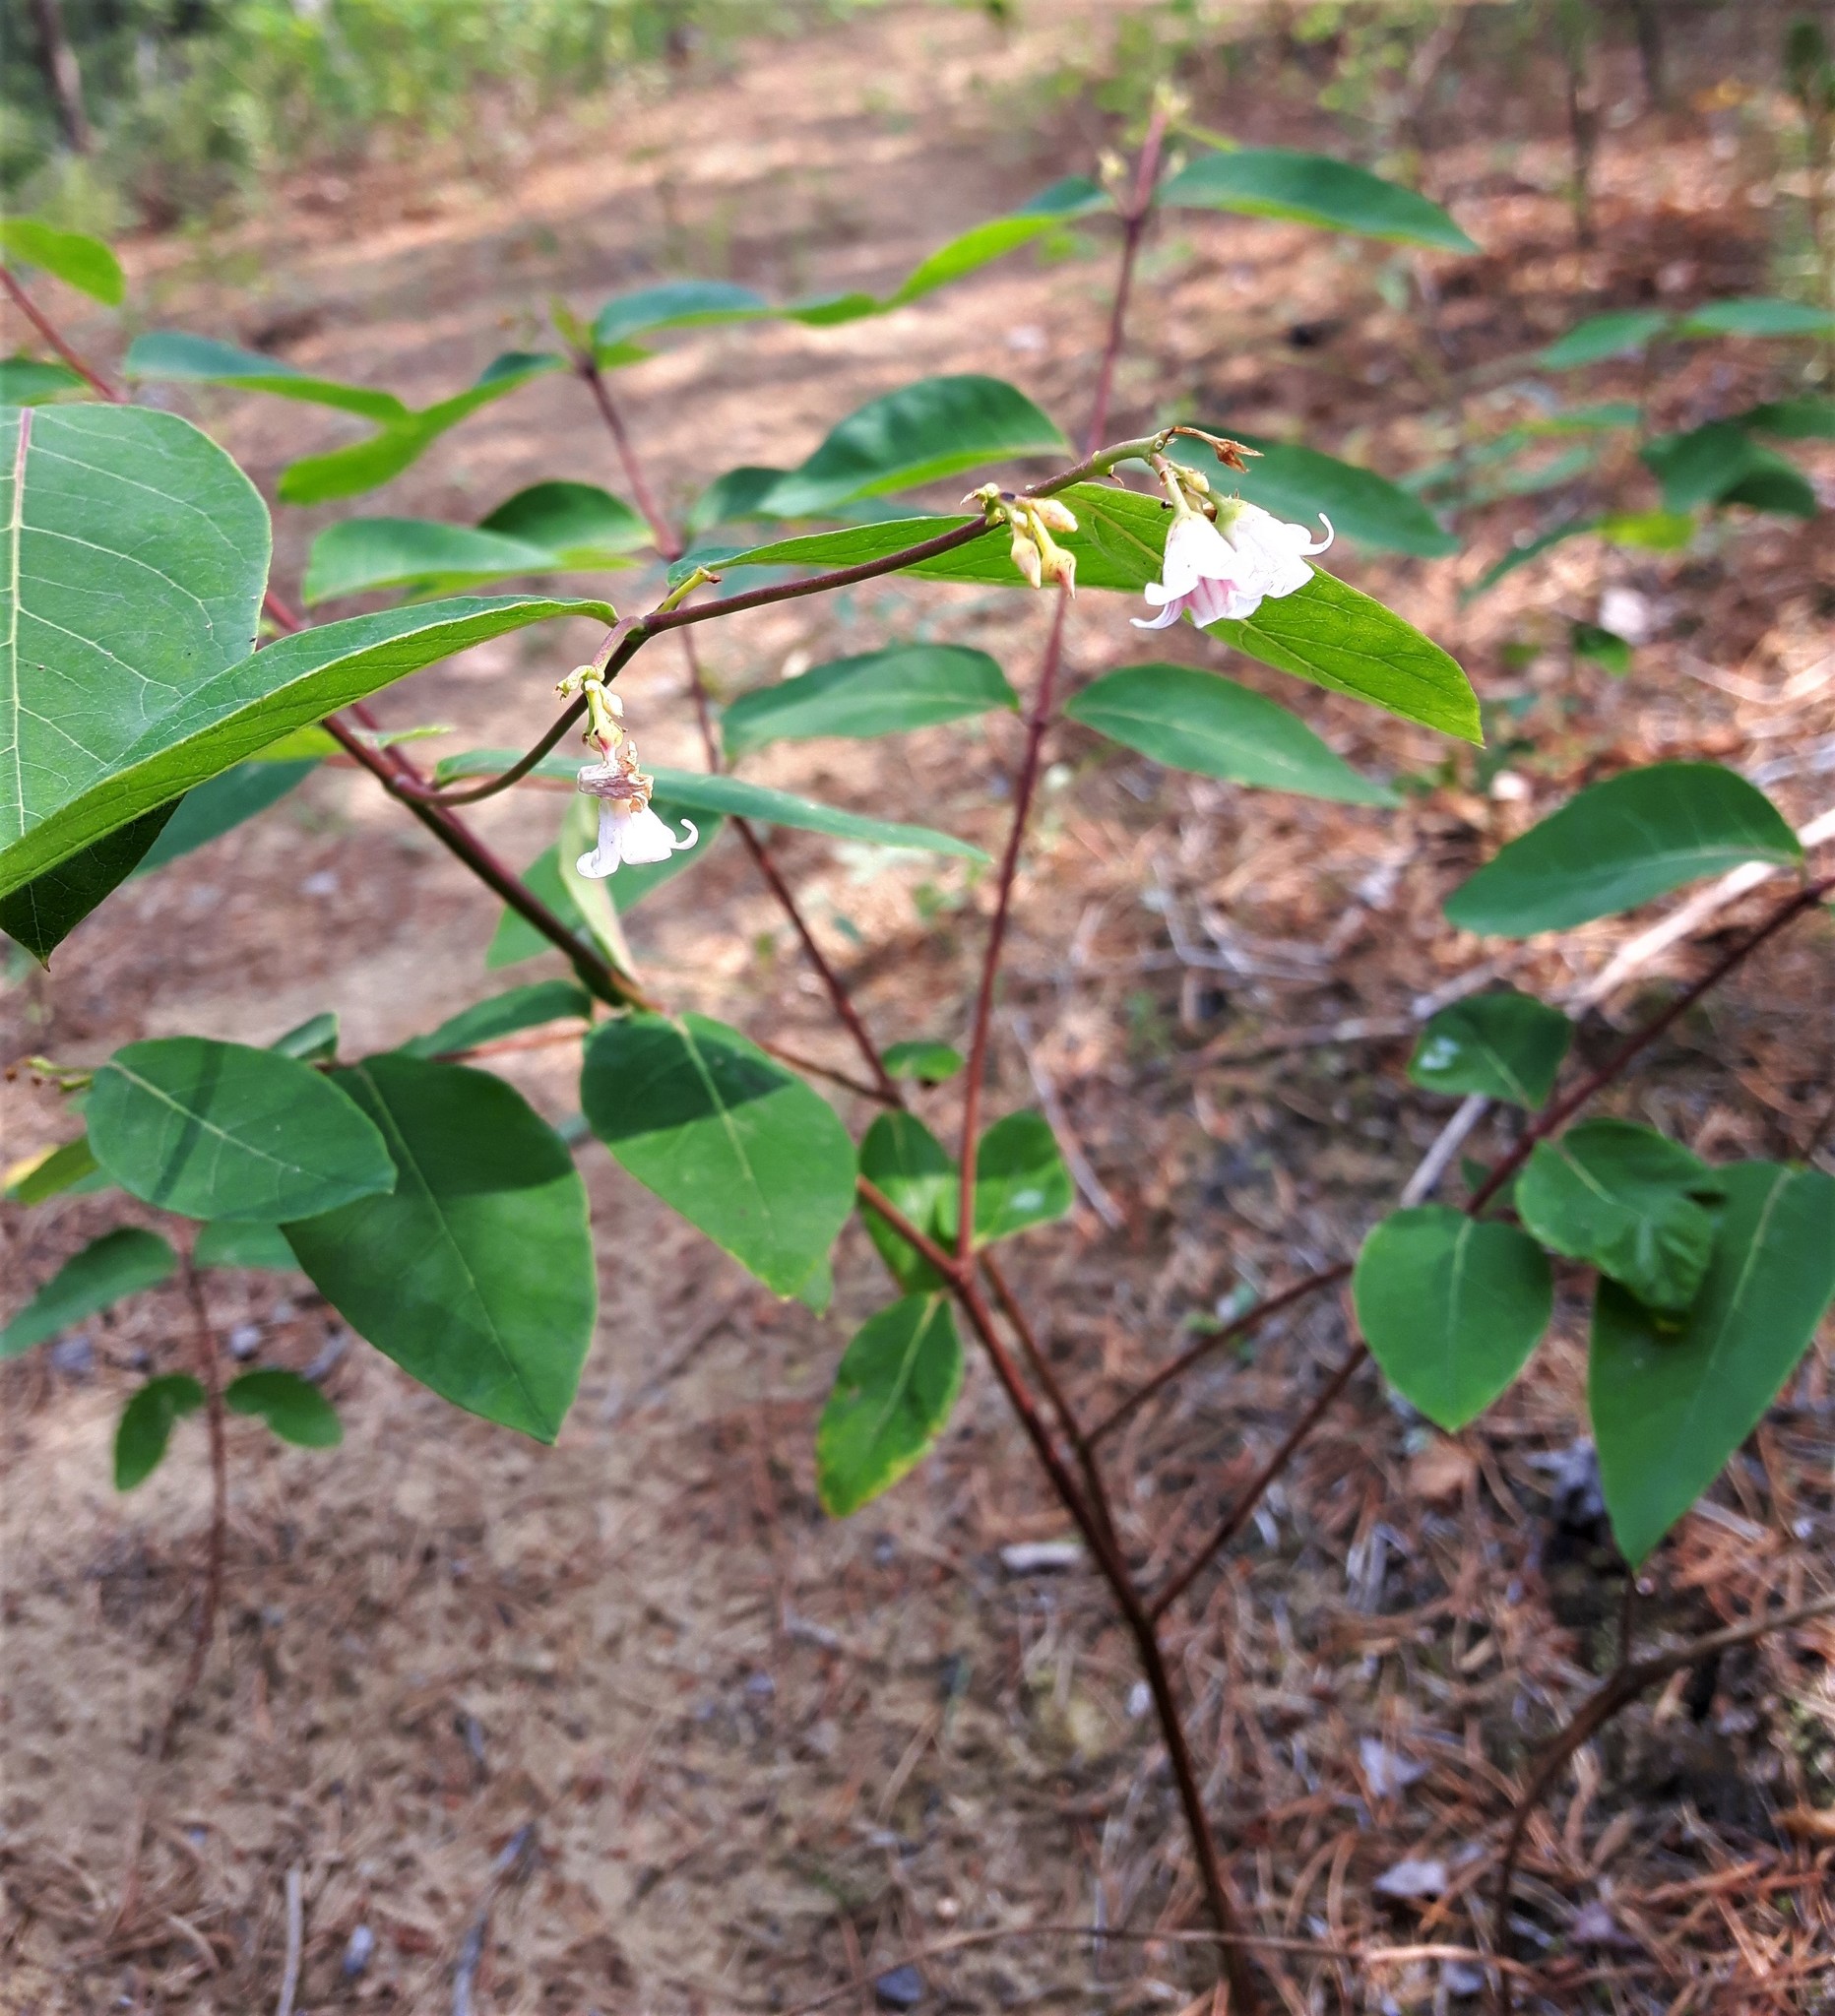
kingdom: Plantae
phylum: Tracheophyta
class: Magnoliopsida
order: Gentianales
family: Apocynaceae
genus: Apocynum
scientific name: Apocynum androsaemifolium
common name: Spreading dogbane
